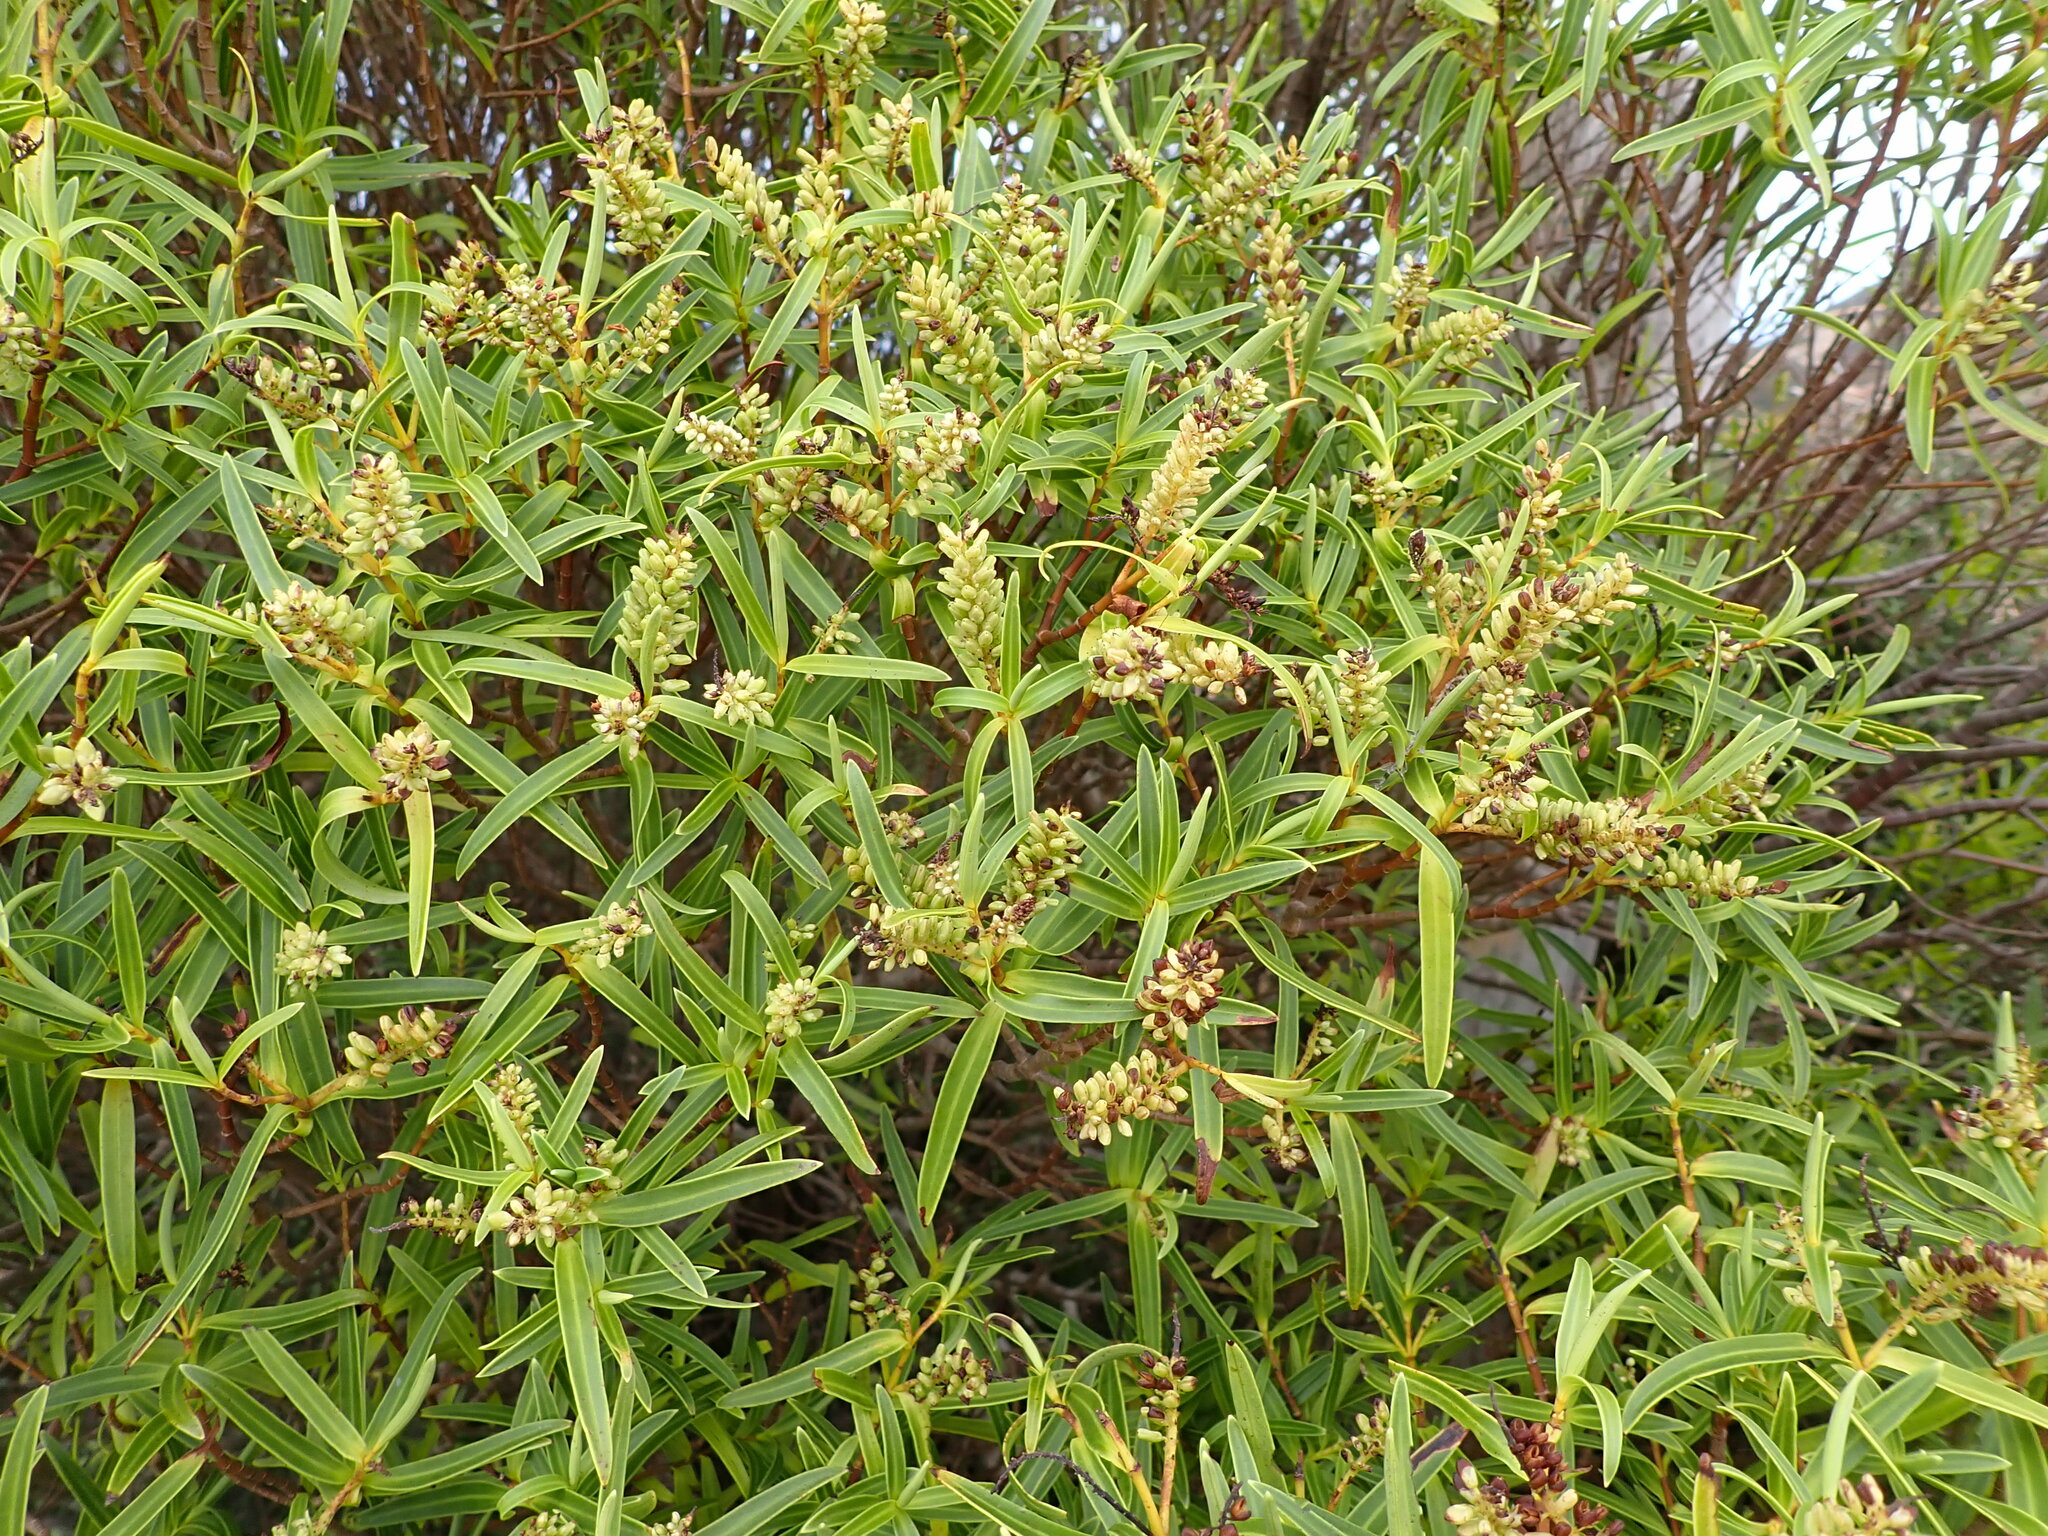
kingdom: Plantae
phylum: Tracheophyta
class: Magnoliopsida
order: Lamiales
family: Plantaginaceae
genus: Veronica
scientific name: Veronica parviflora
